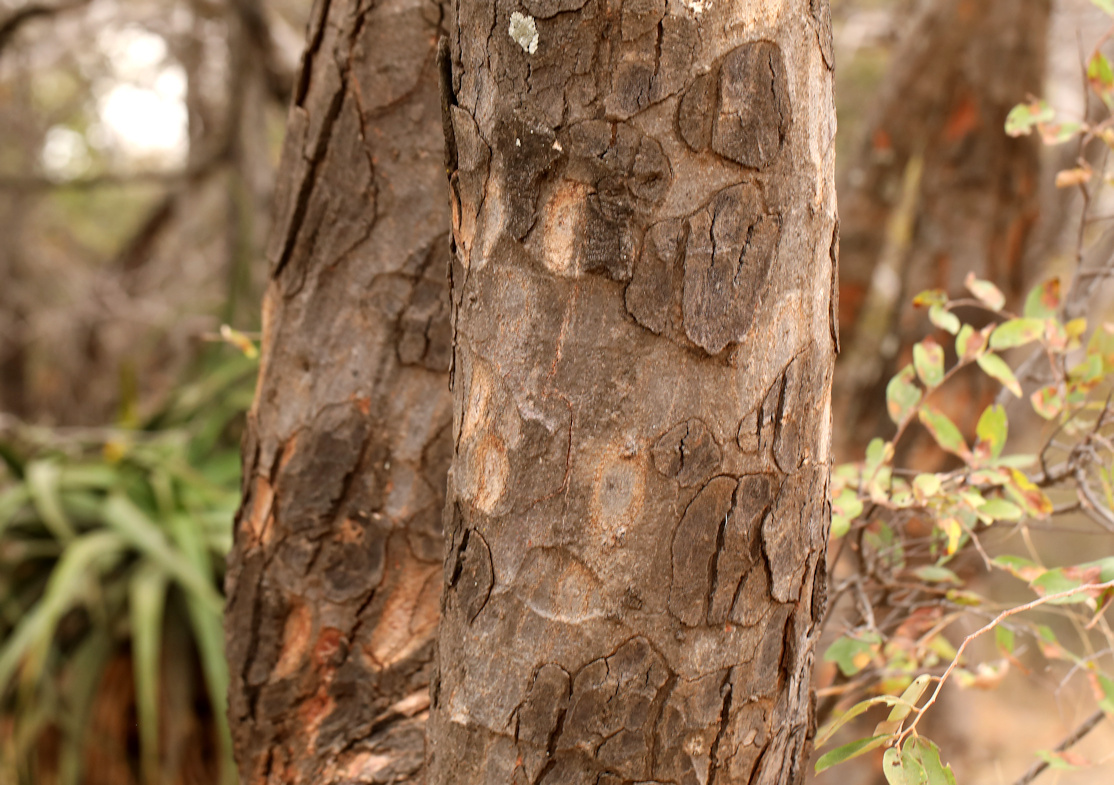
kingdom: Plantae
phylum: Tracheophyta
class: Magnoliopsida
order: Sapindales
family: Anacardiaceae
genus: Lannea
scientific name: Lannea schweinfurthii
